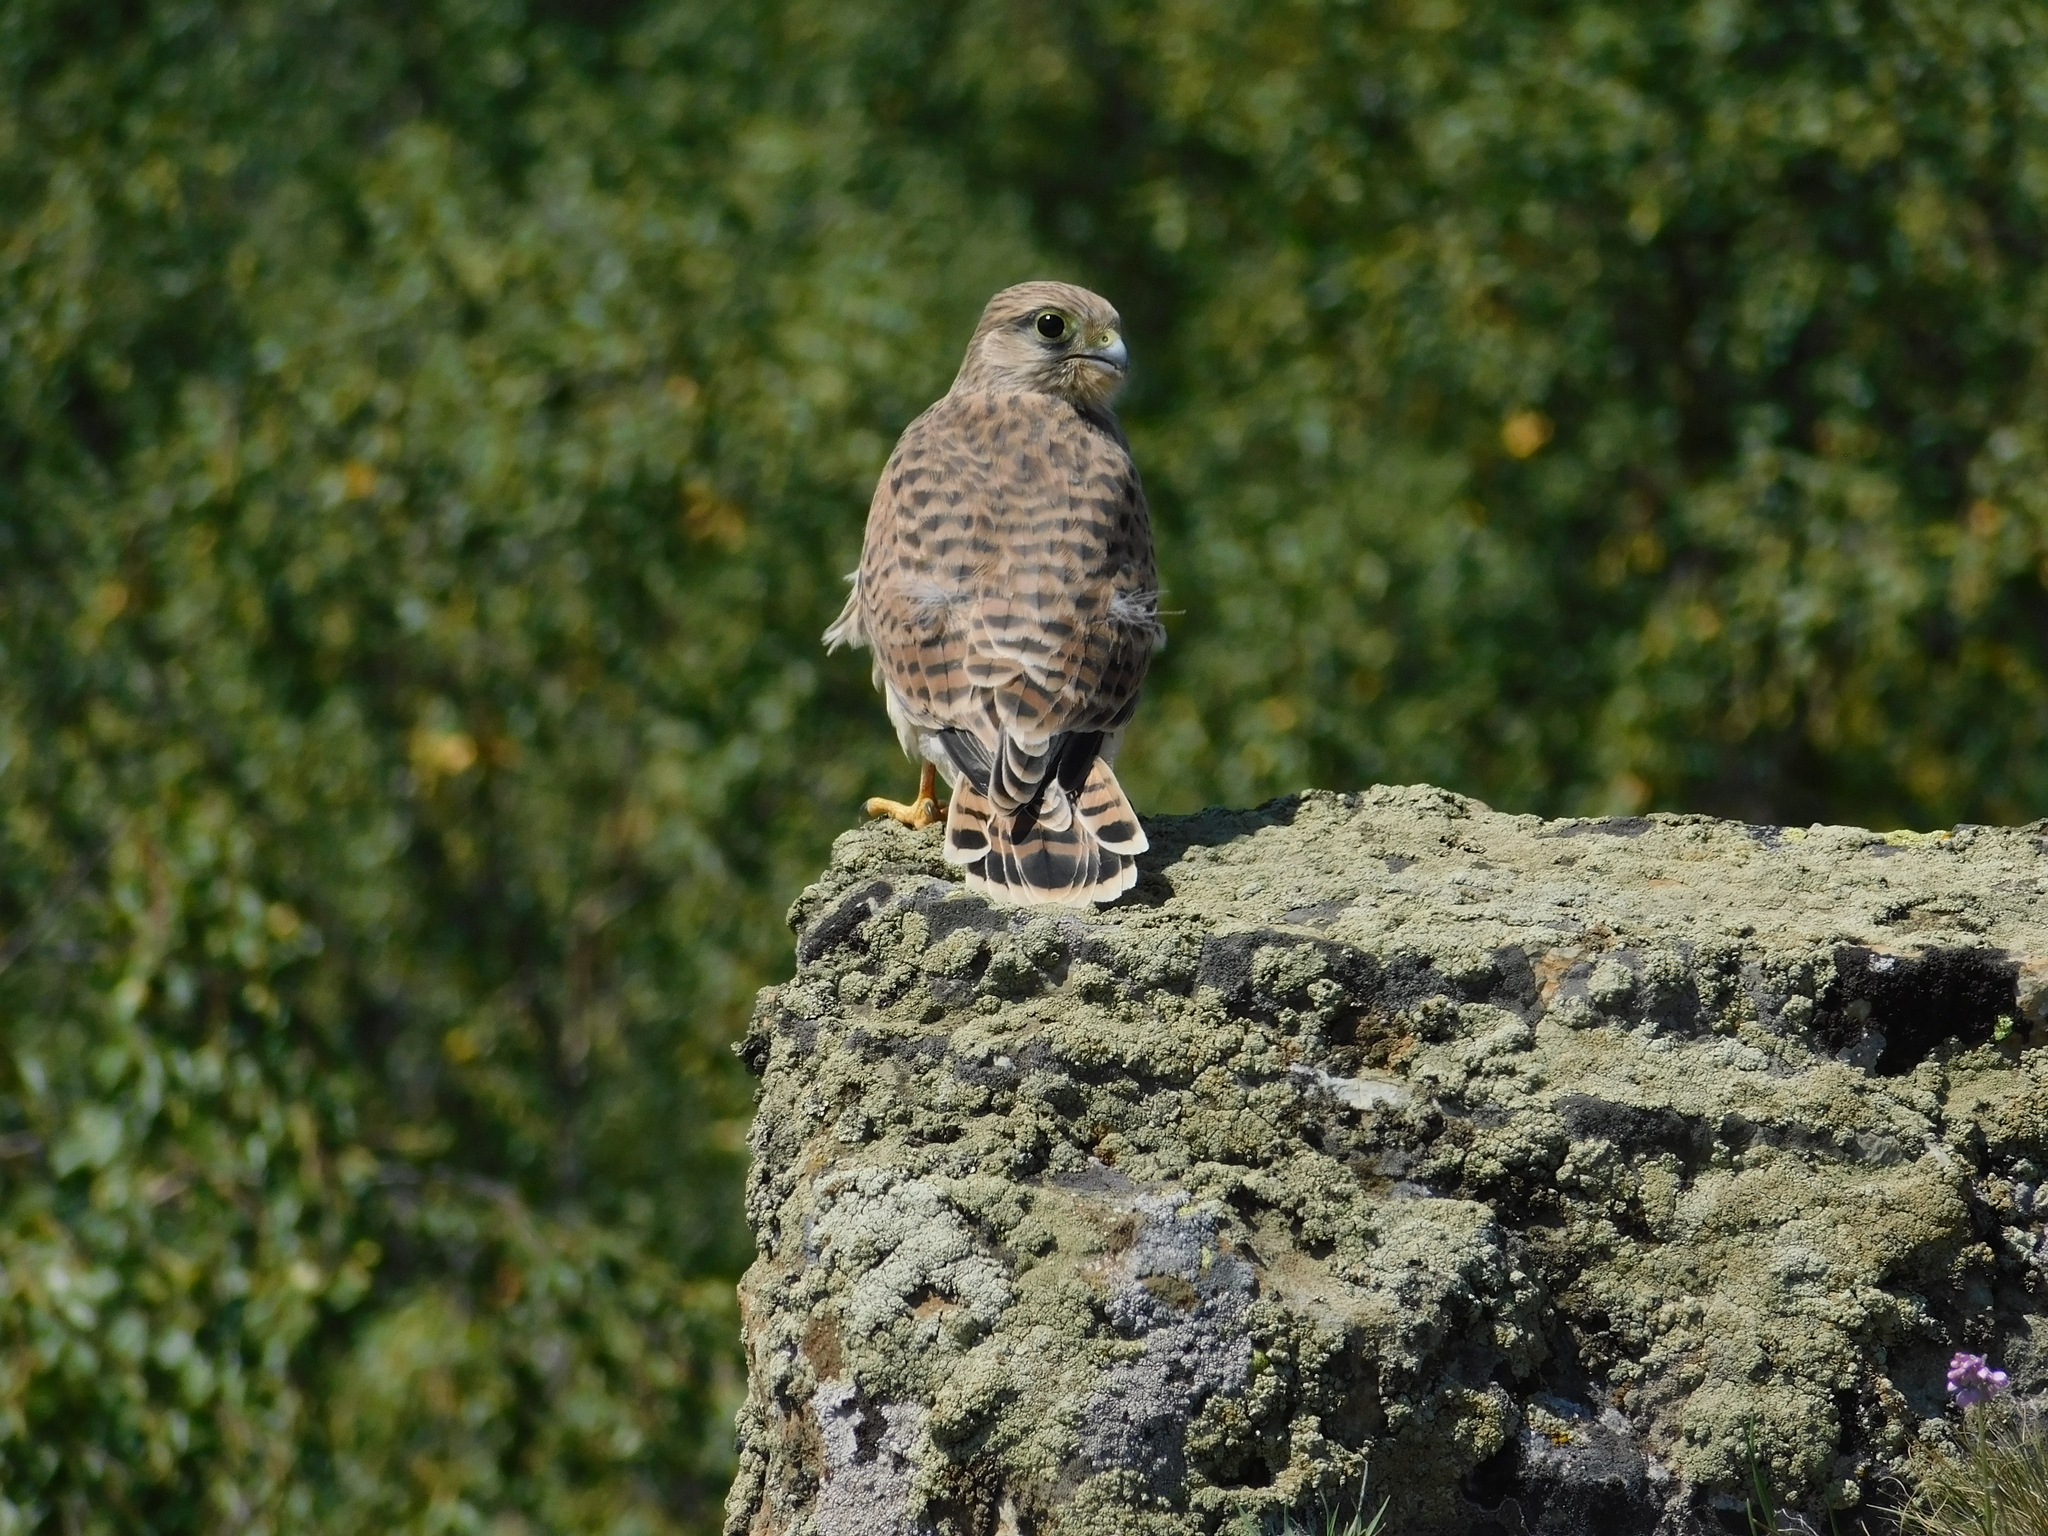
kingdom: Animalia
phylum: Chordata
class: Aves
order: Falconiformes
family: Falconidae
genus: Falco
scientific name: Falco tinnunculus
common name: Common kestrel
